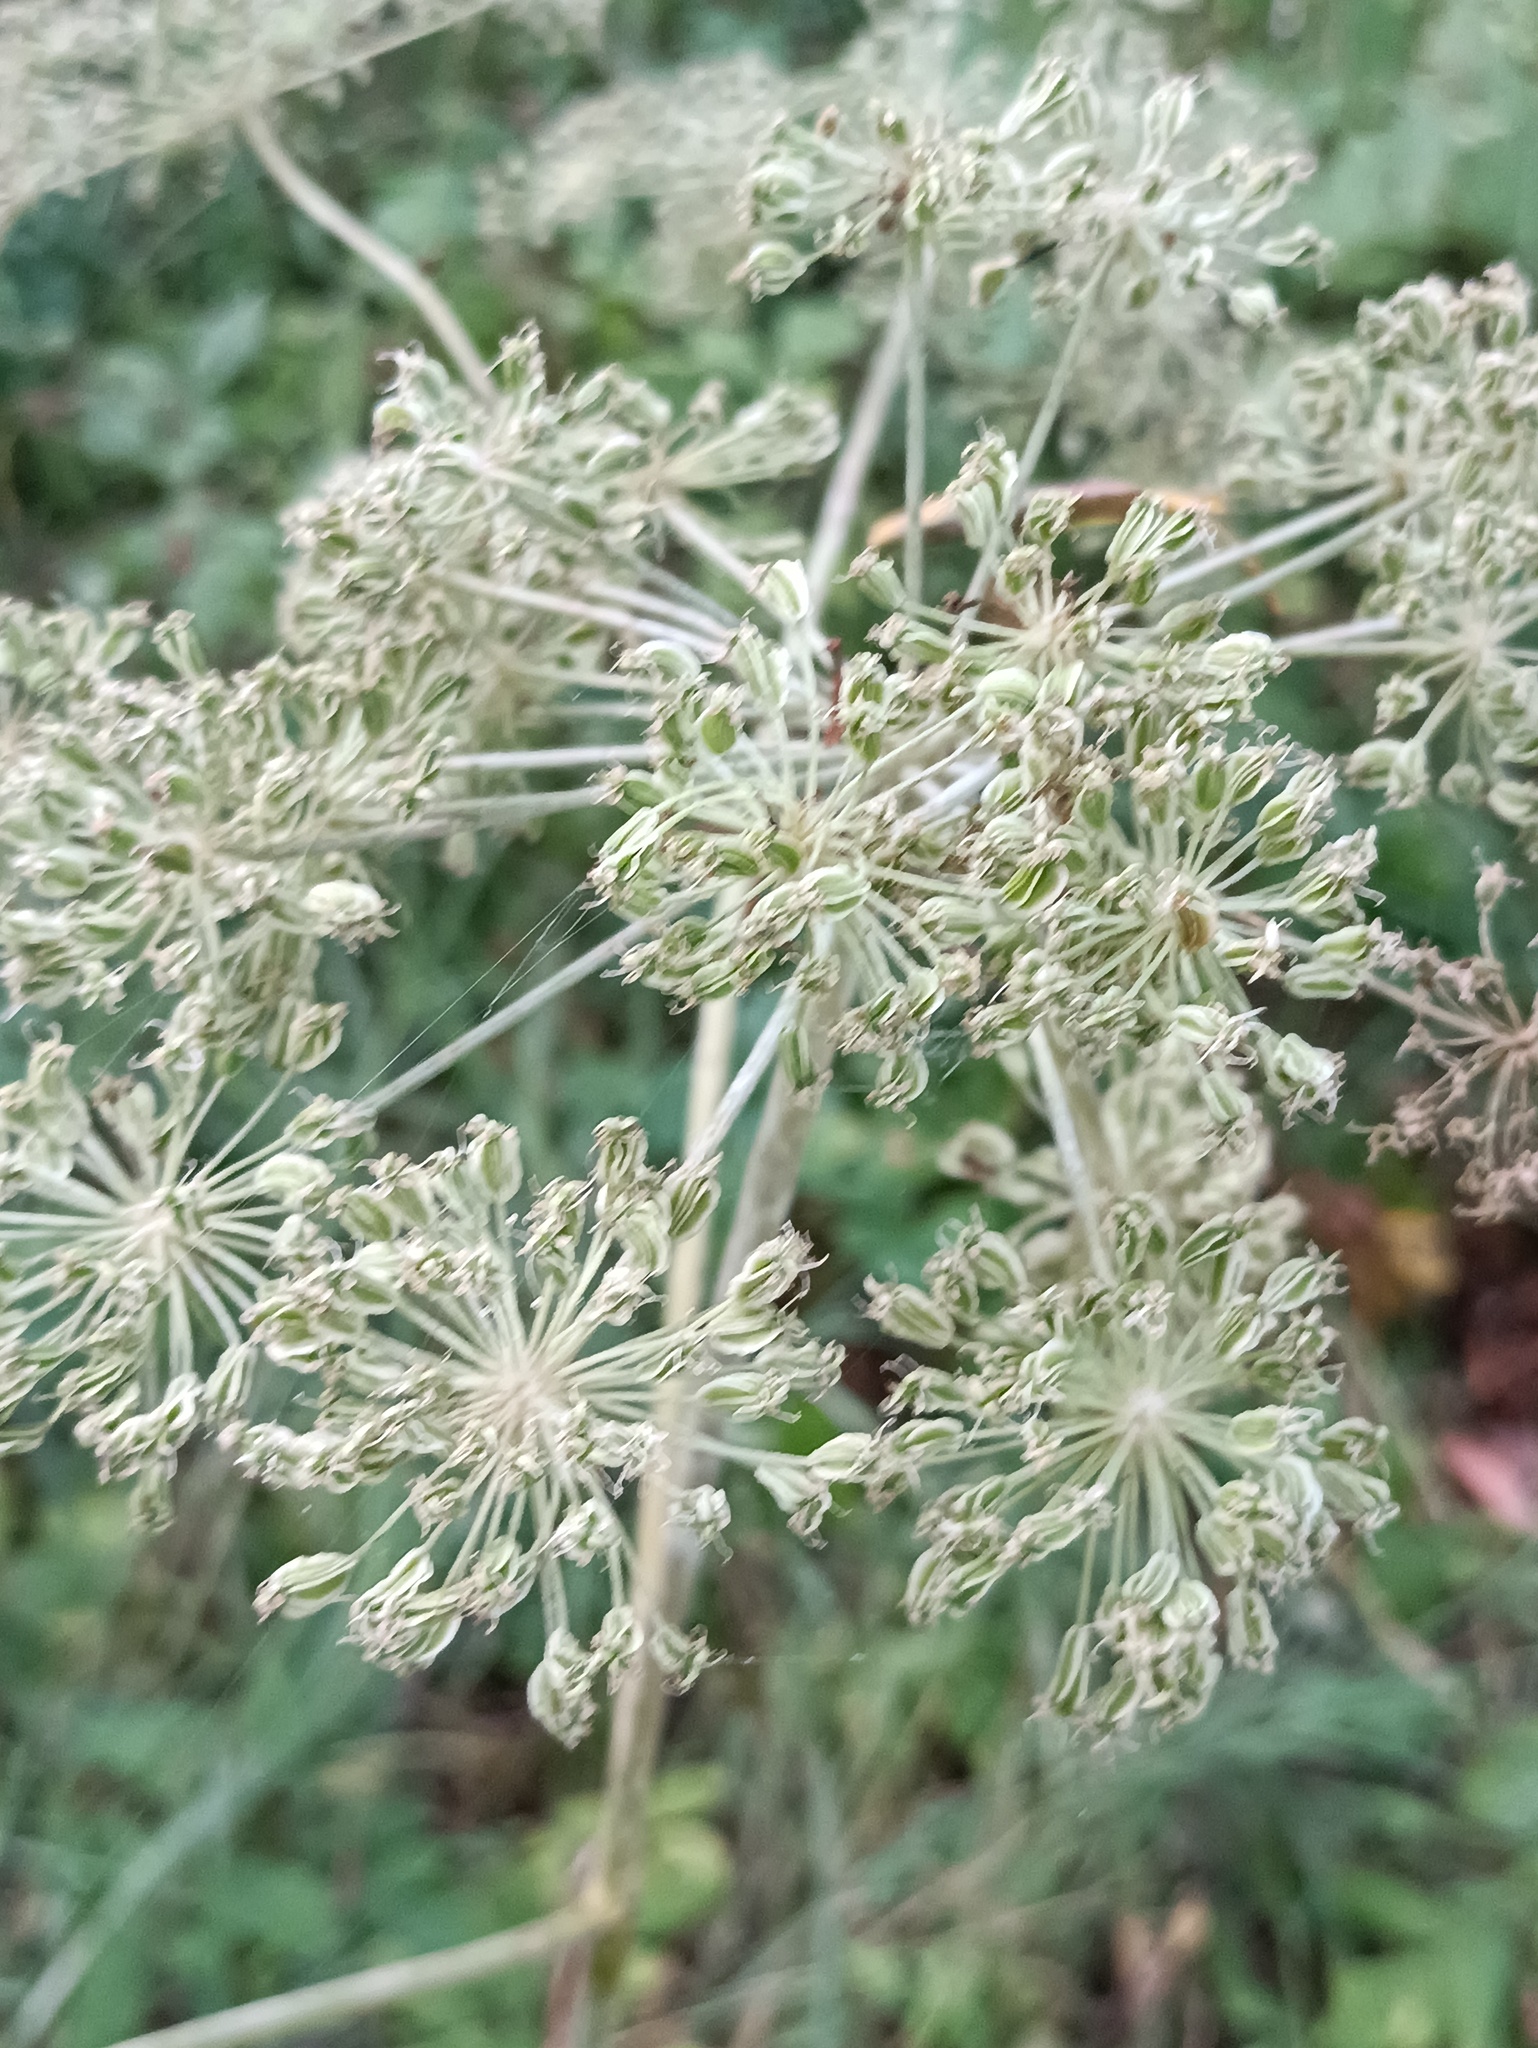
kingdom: Plantae
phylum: Tracheophyta
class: Magnoliopsida
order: Apiales
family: Apiaceae
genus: Angelica
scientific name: Angelica sylvestris
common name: Wild angelica
